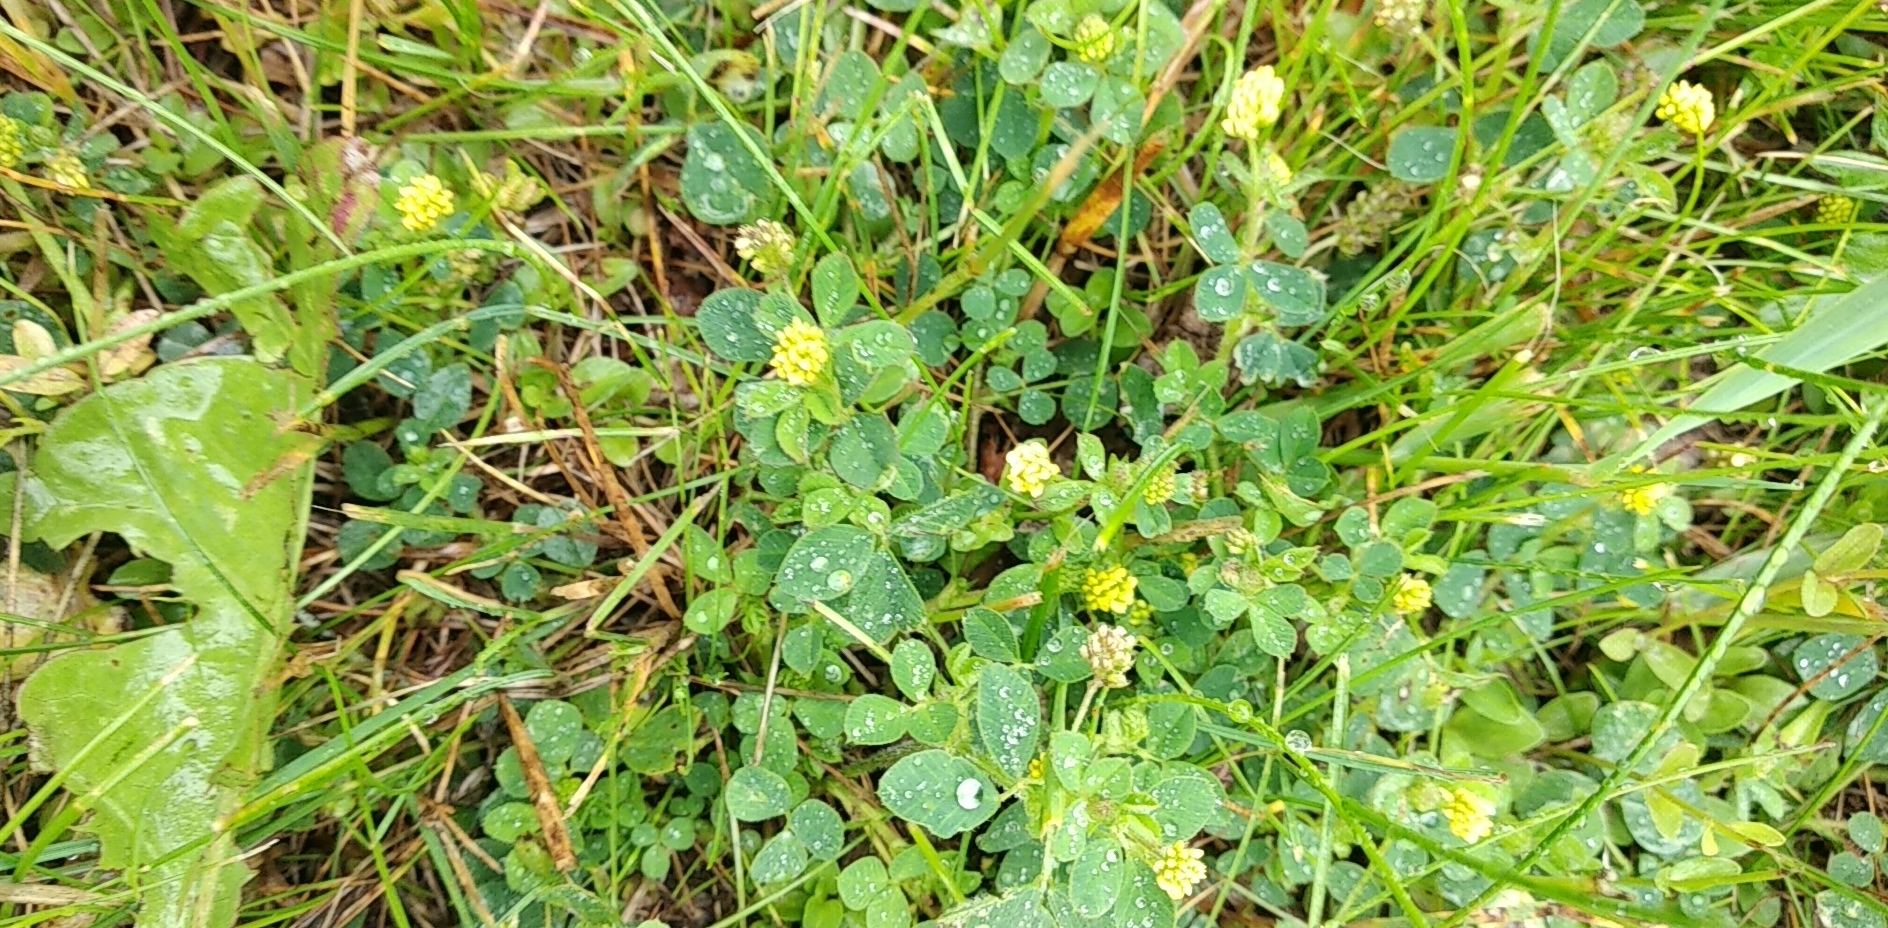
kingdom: Plantae
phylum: Tracheophyta
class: Magnoliopsida
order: Fabales
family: Fabaceae
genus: Medicago
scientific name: Medicago lupulina
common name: Black medick
